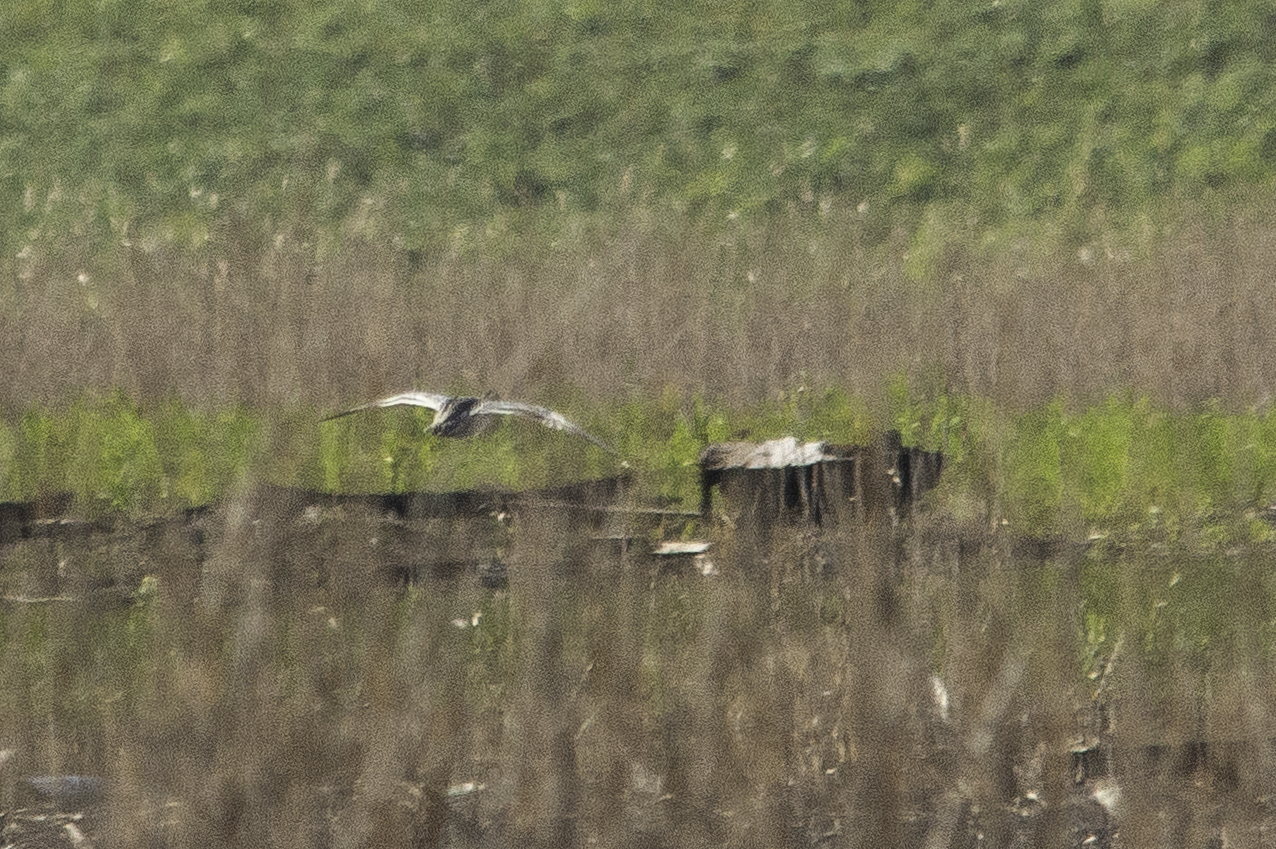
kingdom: Animalia
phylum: Chordata
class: Aves
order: Anseriformes
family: Anatidae
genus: Spatula
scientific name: Spatula querquedula
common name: Garganey
